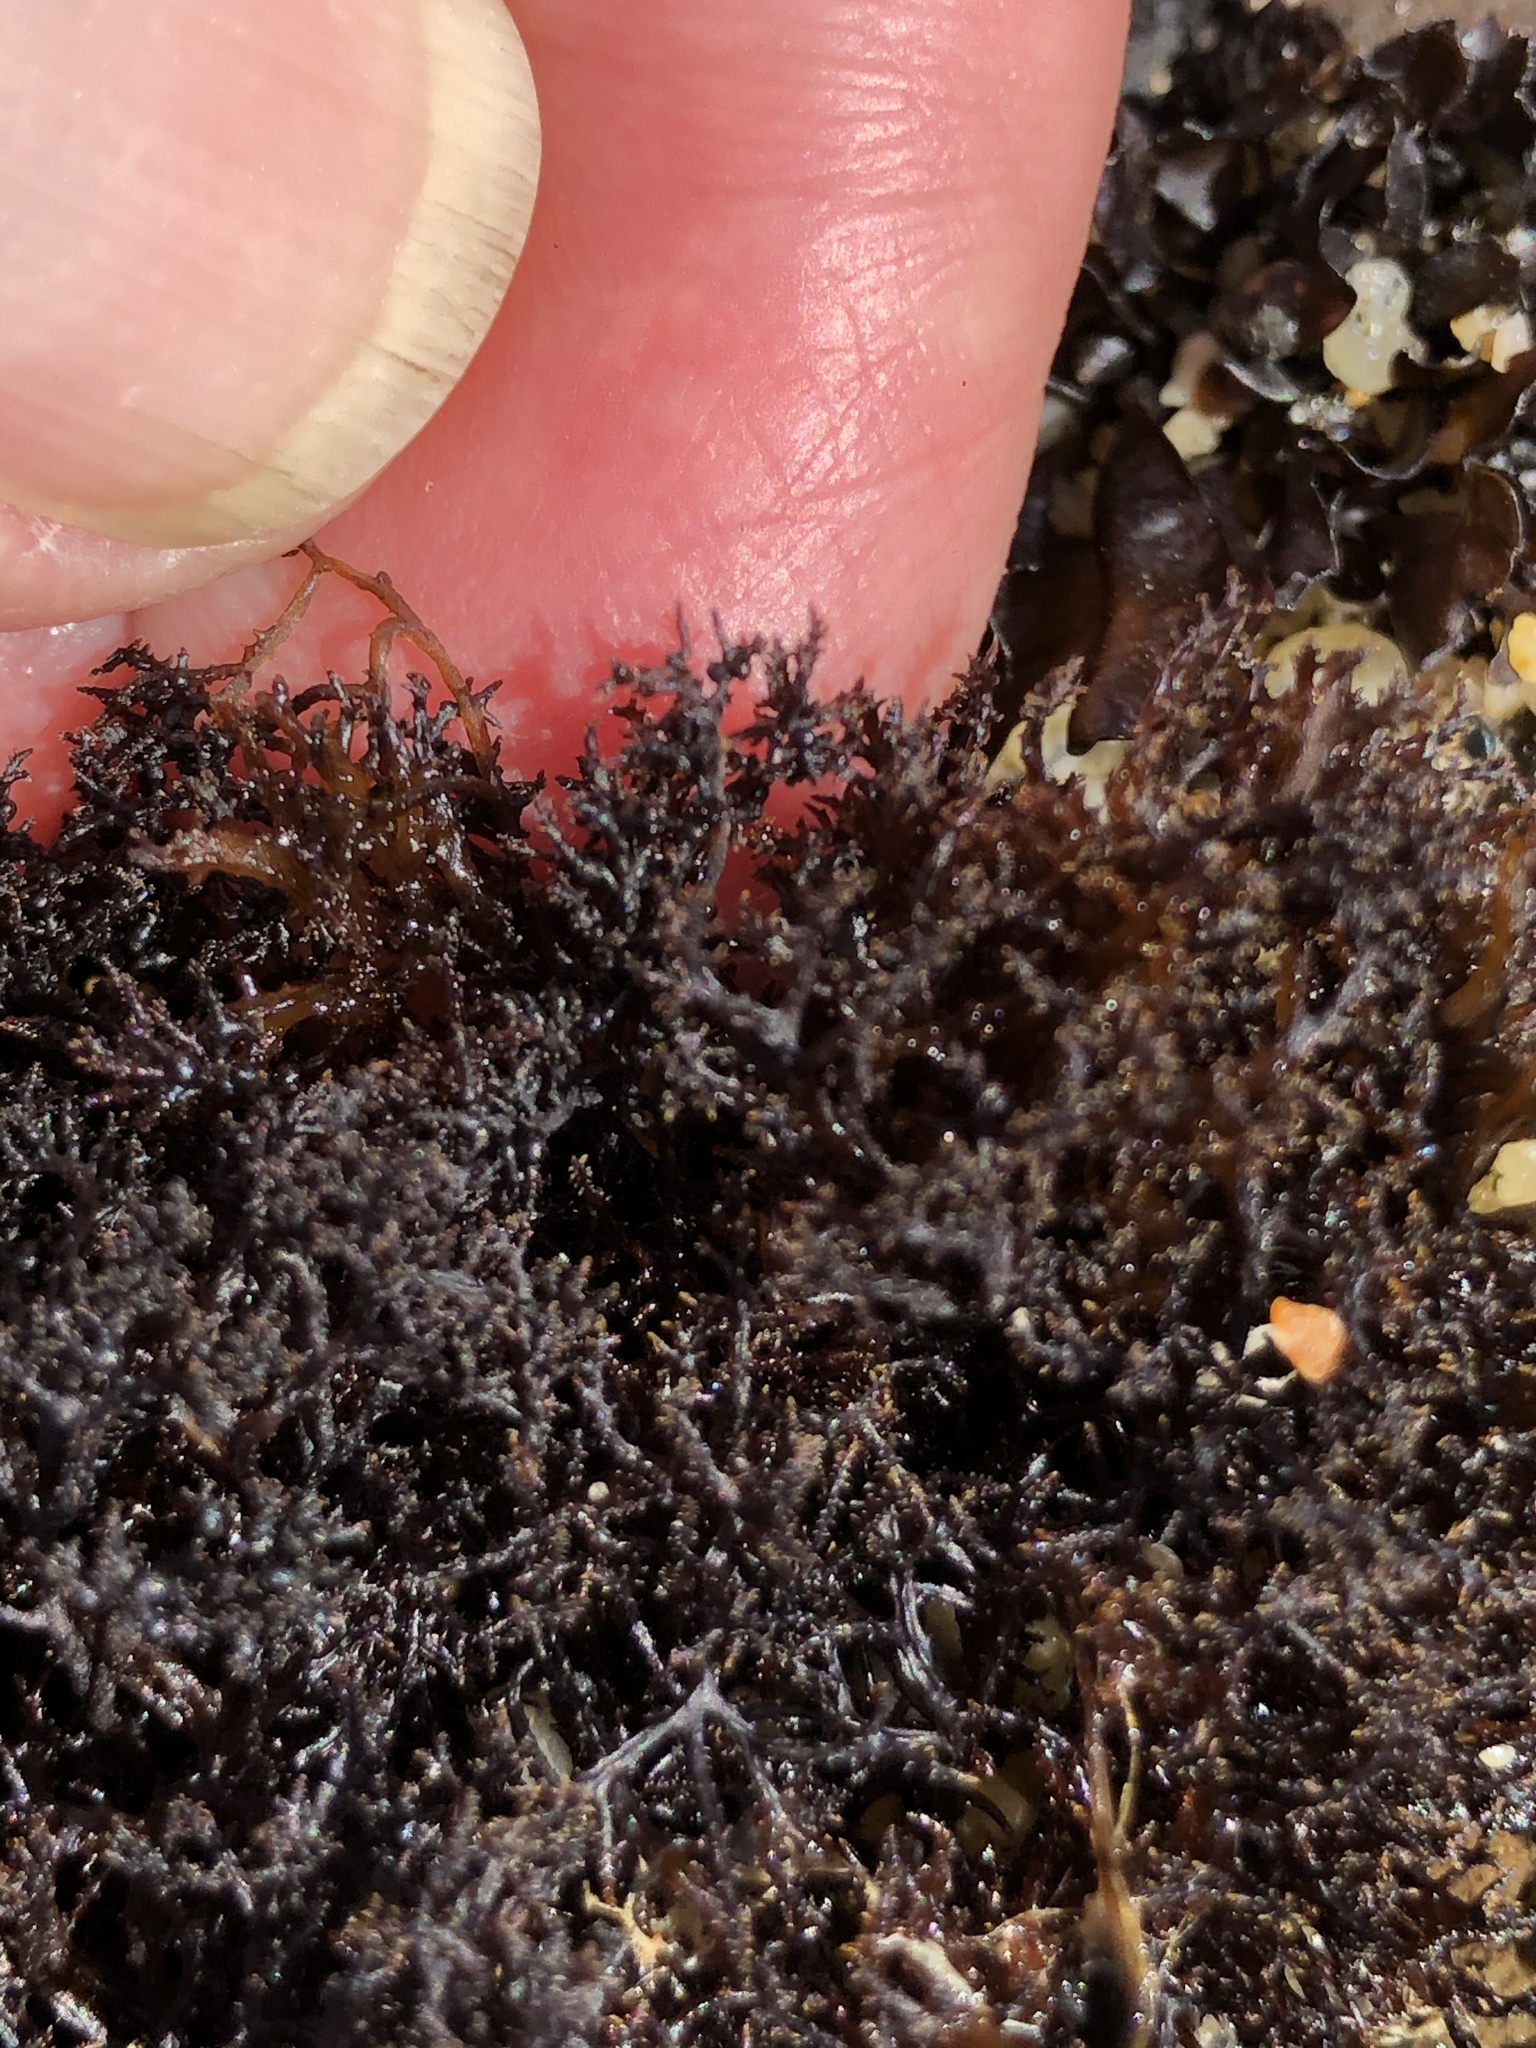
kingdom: Plantae
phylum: Rhodophyta
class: Florideophyceae
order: Gigartinales
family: Endocladiaceae
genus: Endocladia
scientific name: Endocladia muricata
